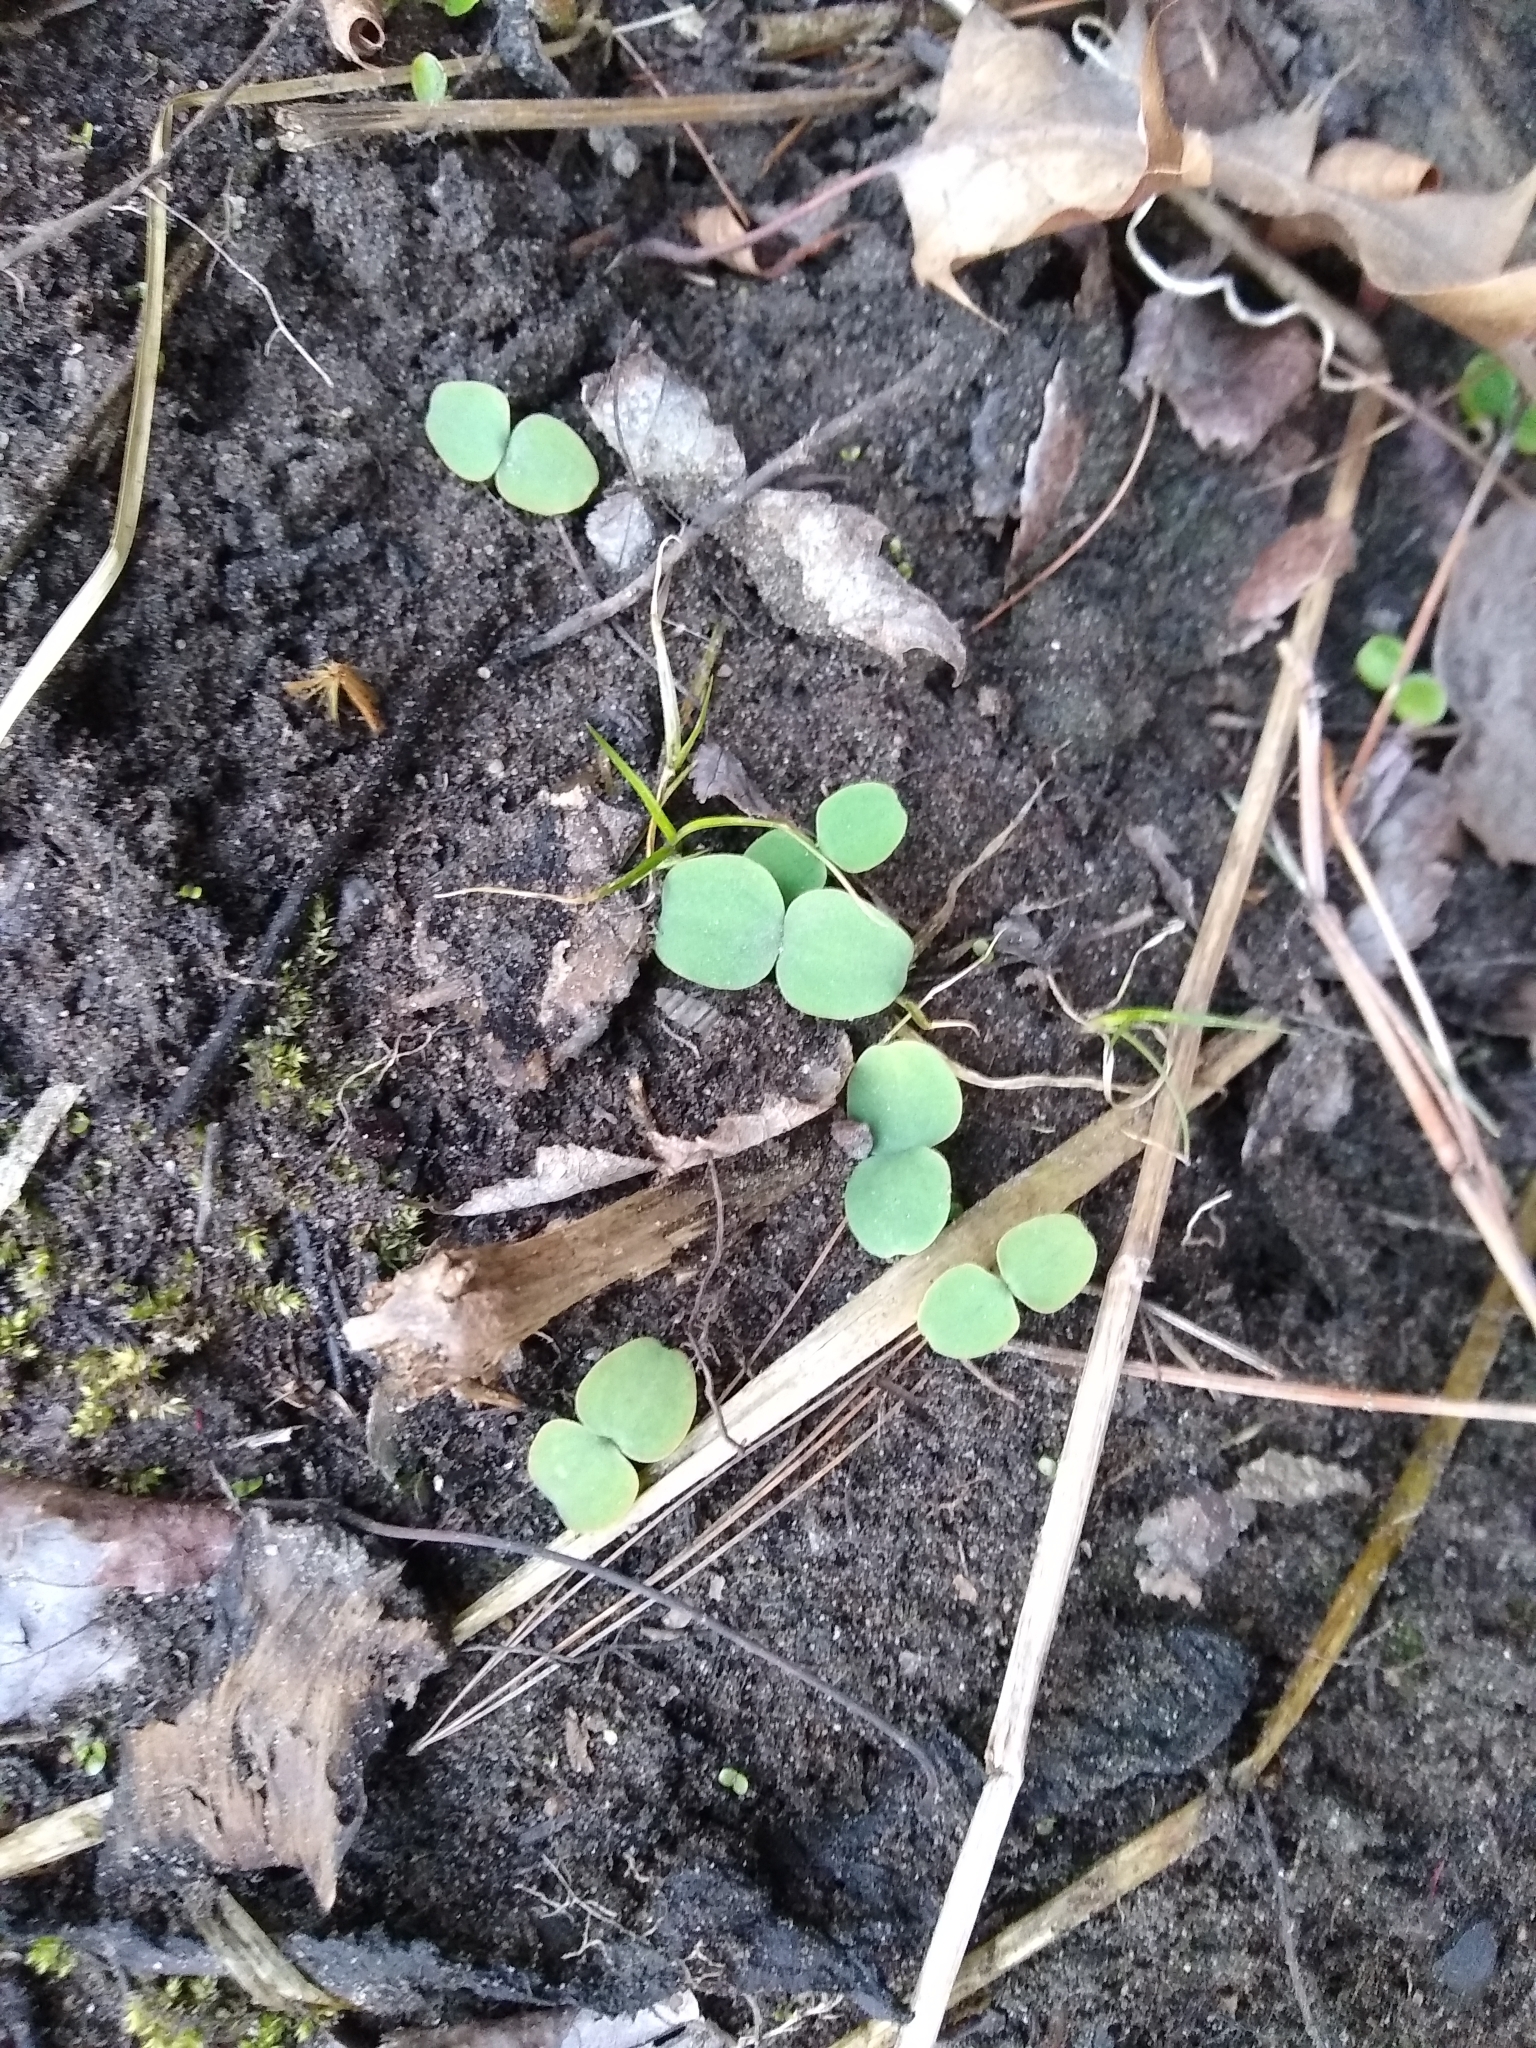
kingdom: Plantae
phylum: Tracheophyta
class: Magnoliopsida
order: Ericales
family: Balsaminaceae
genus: Impatiens
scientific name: Impatiens capensis
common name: Orange balsam
